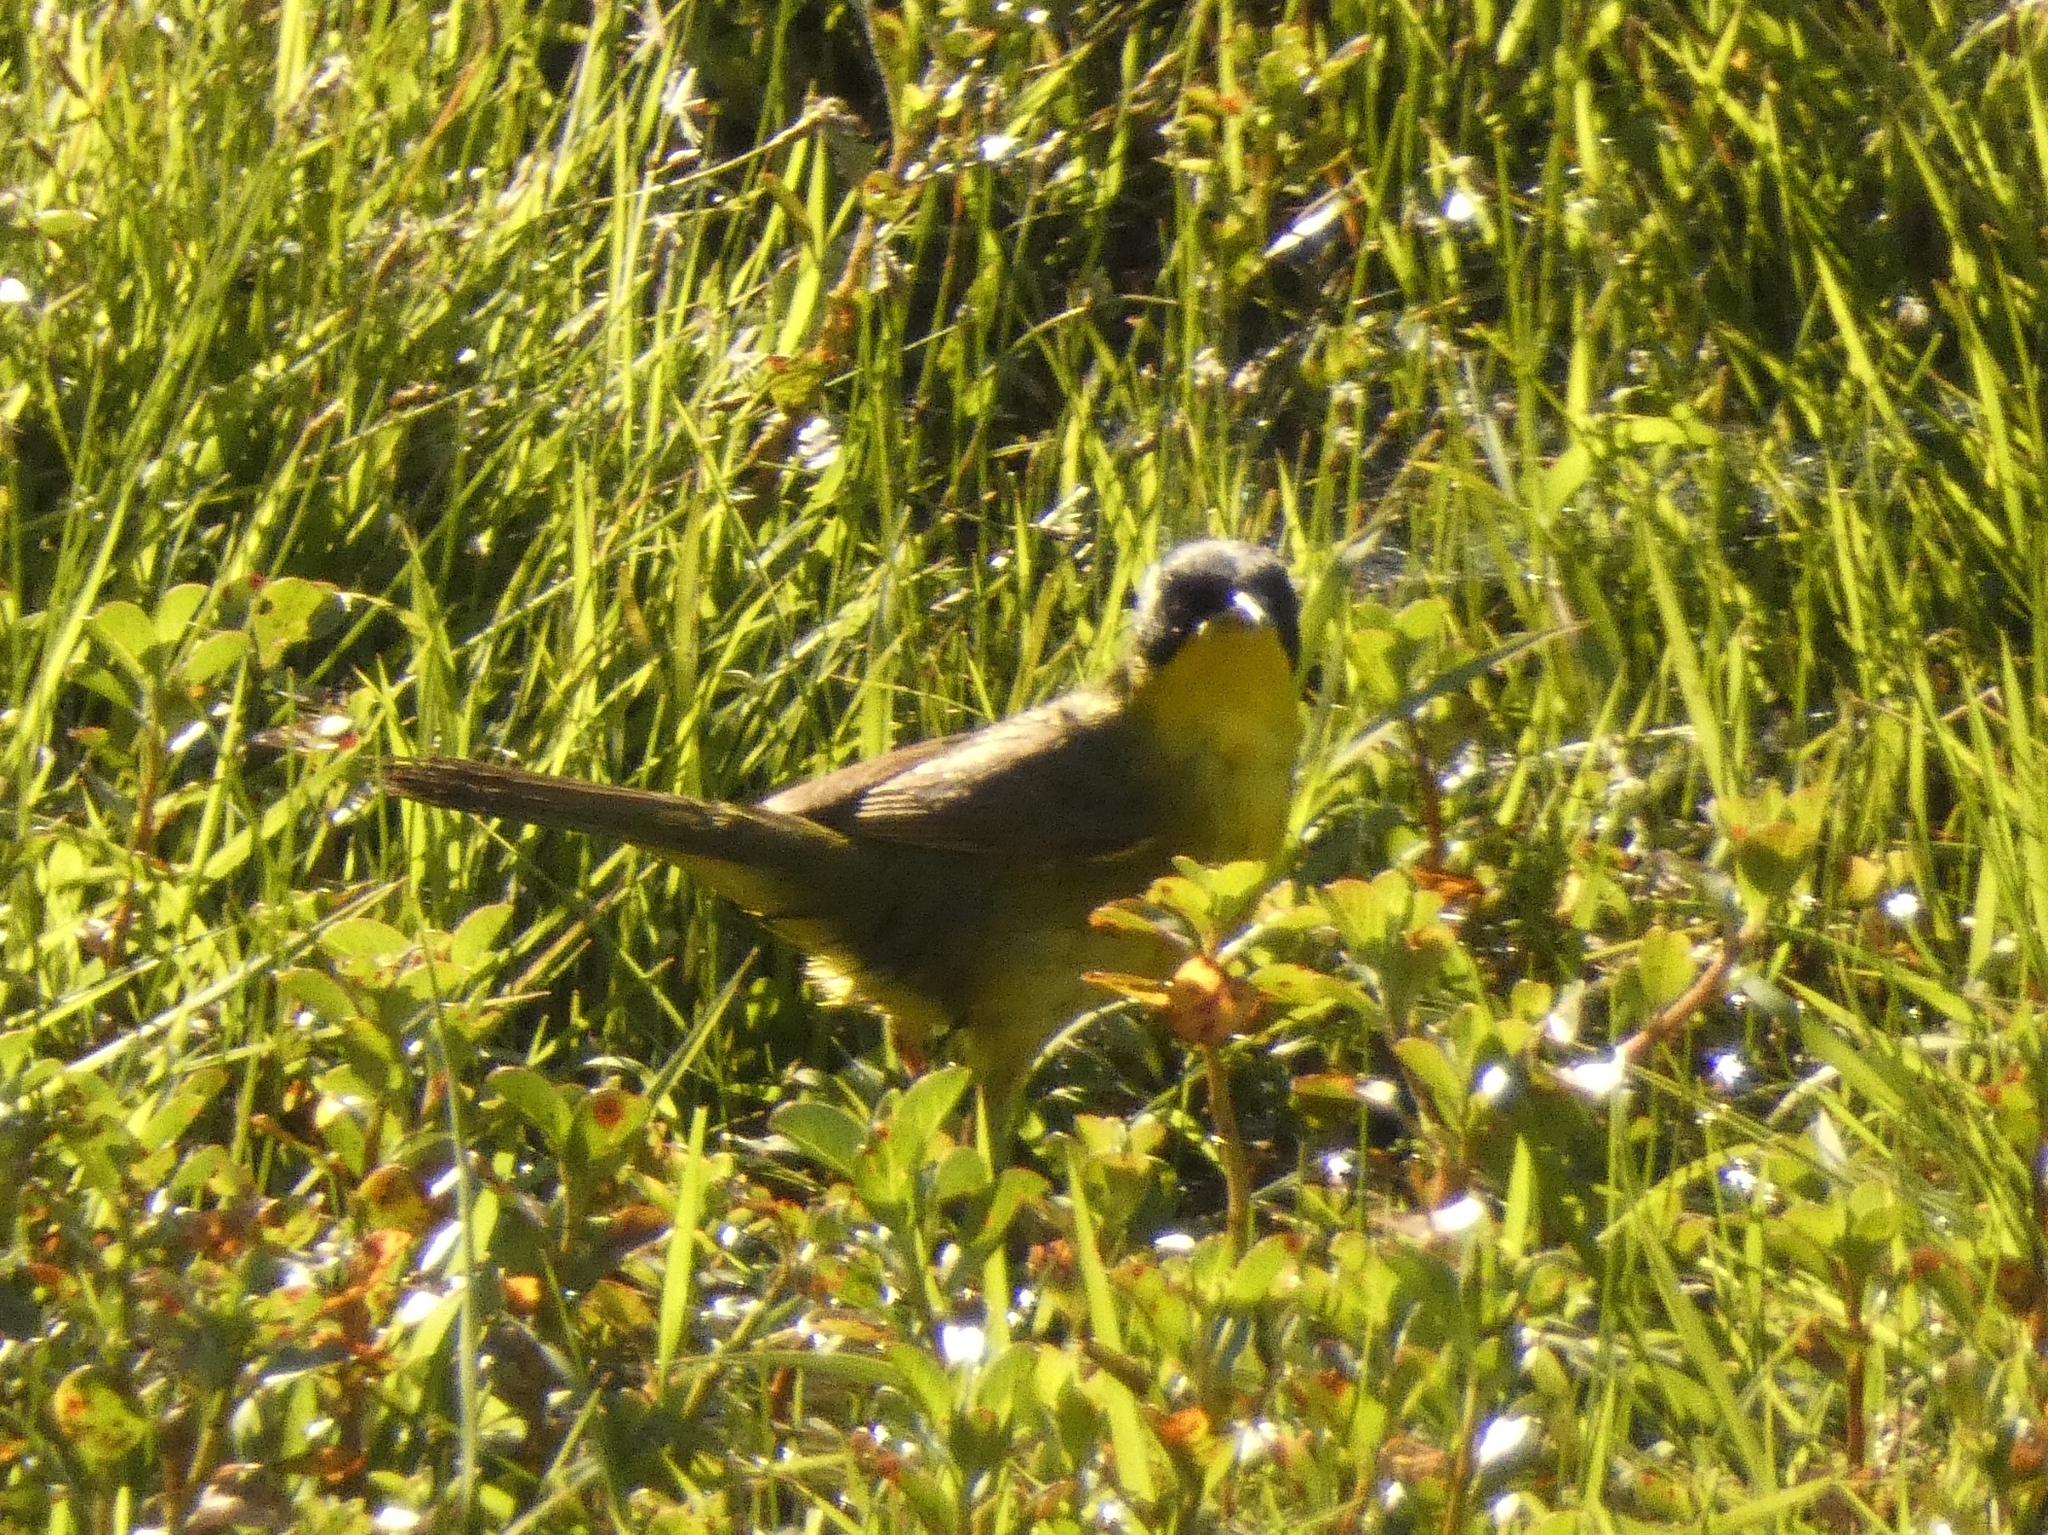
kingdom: Animalia
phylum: Chordata
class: Aves
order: Passeriformes
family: Parulidae
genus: Geothlypis
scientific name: Geothlypis velata
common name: Southern yellowthroat
